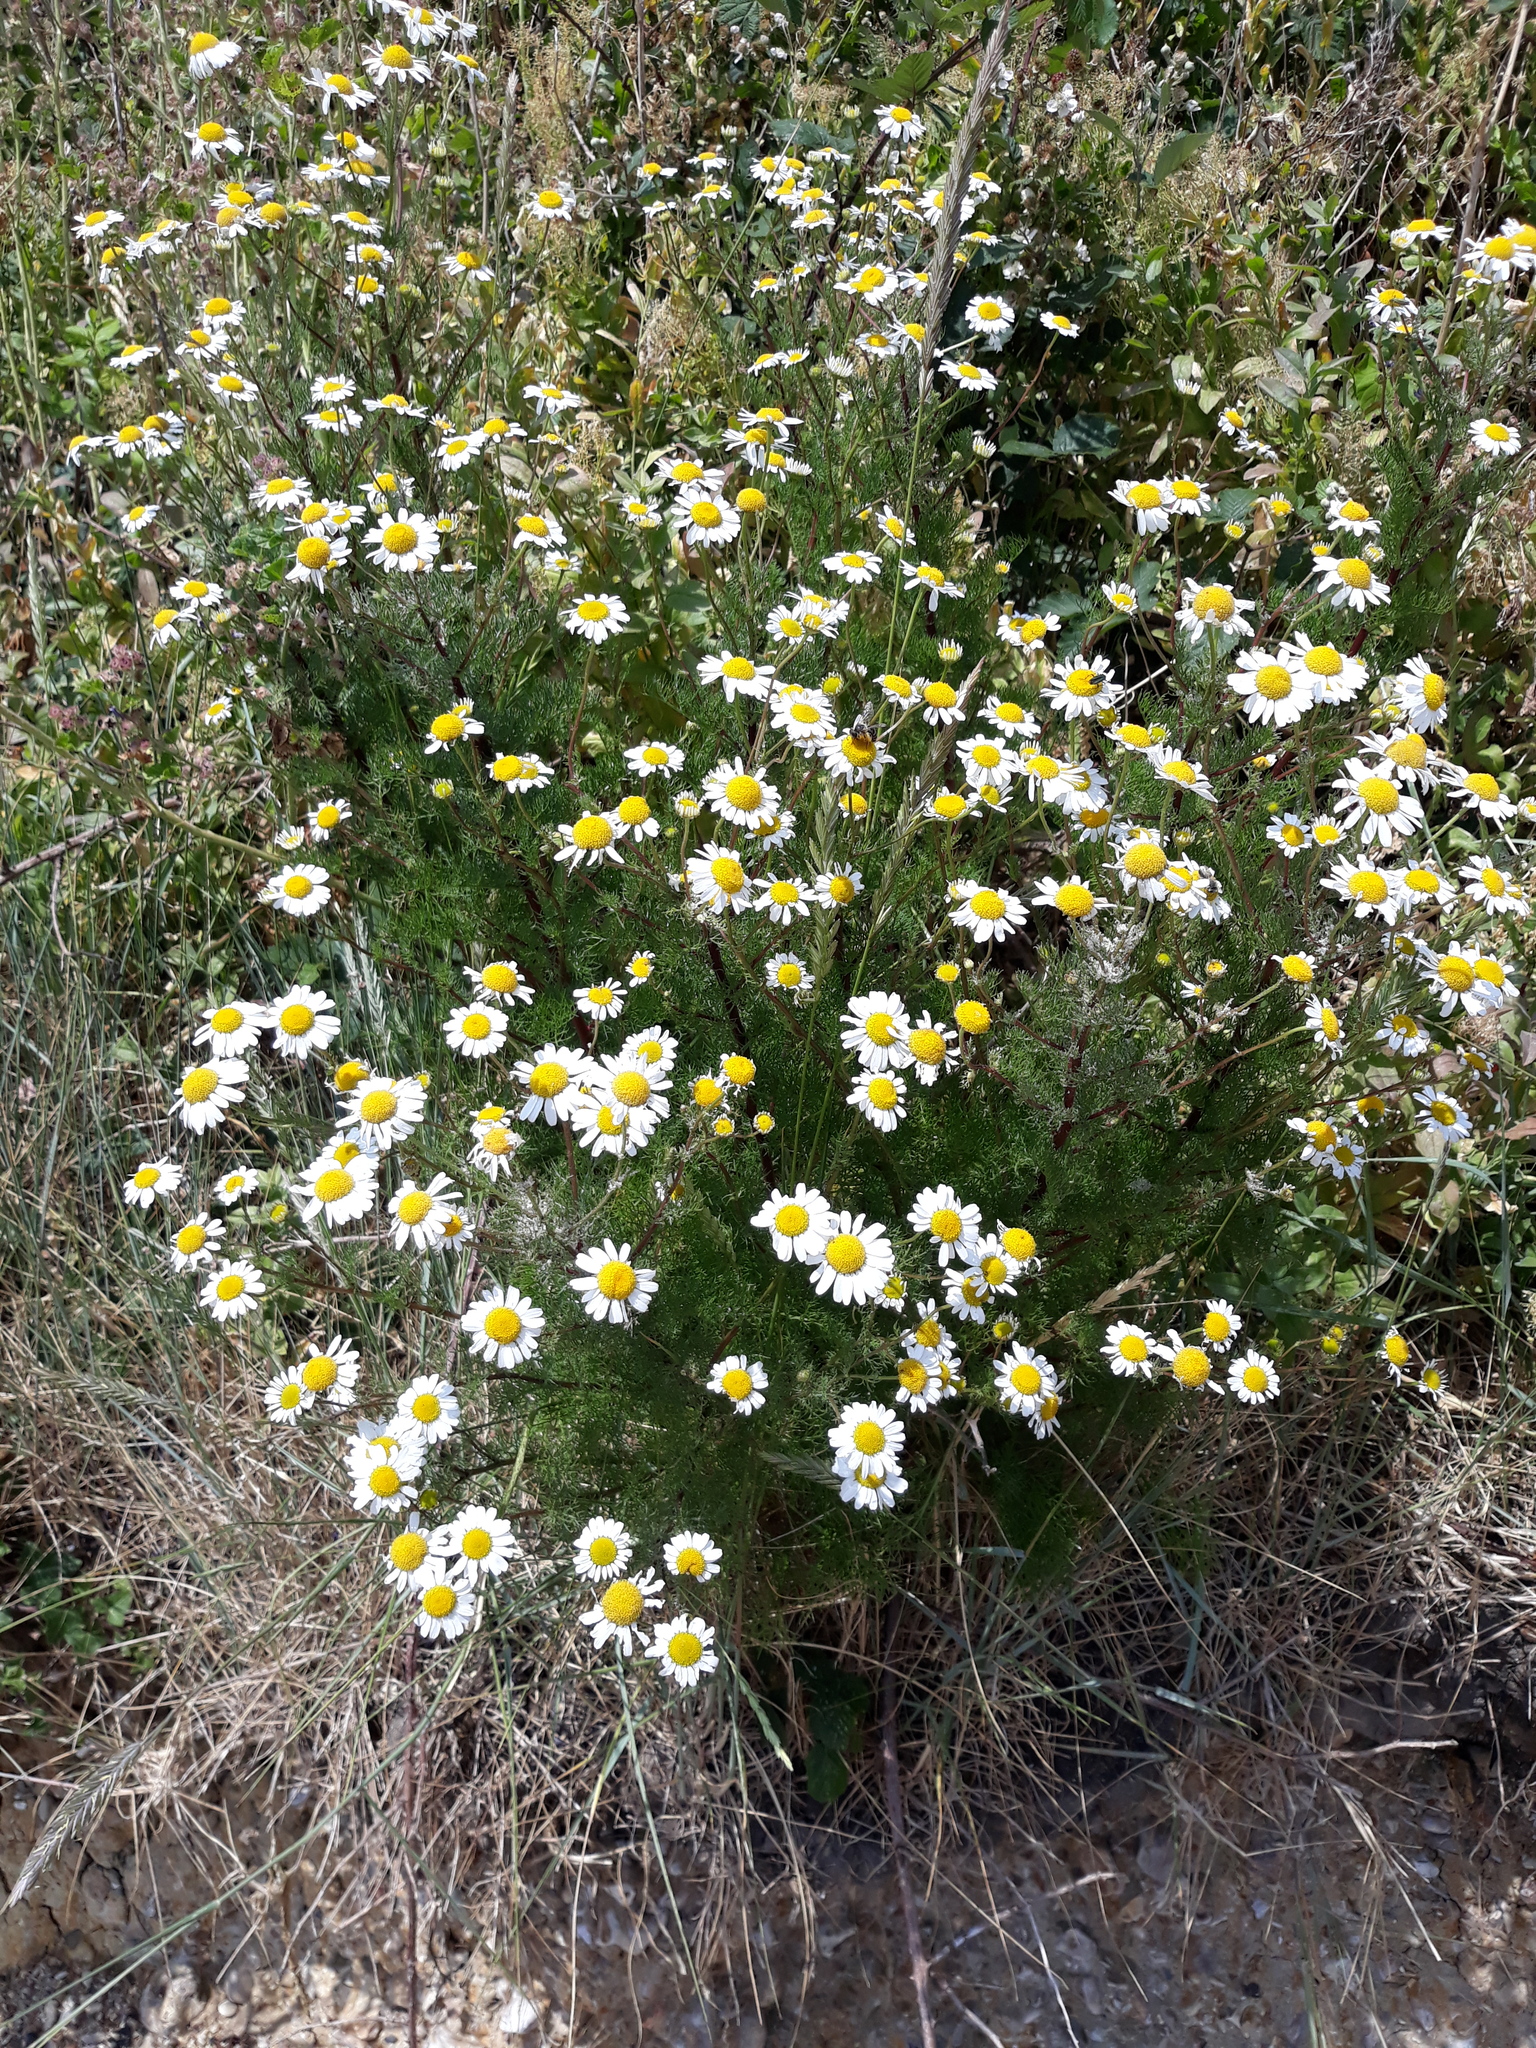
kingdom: Plantae
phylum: Tracheophyta
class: Magnoliopsida
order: Asterales
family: Asteraceae
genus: Tripleurospermum
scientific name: Tripleurospermum maritimum
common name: Sea mayweed
